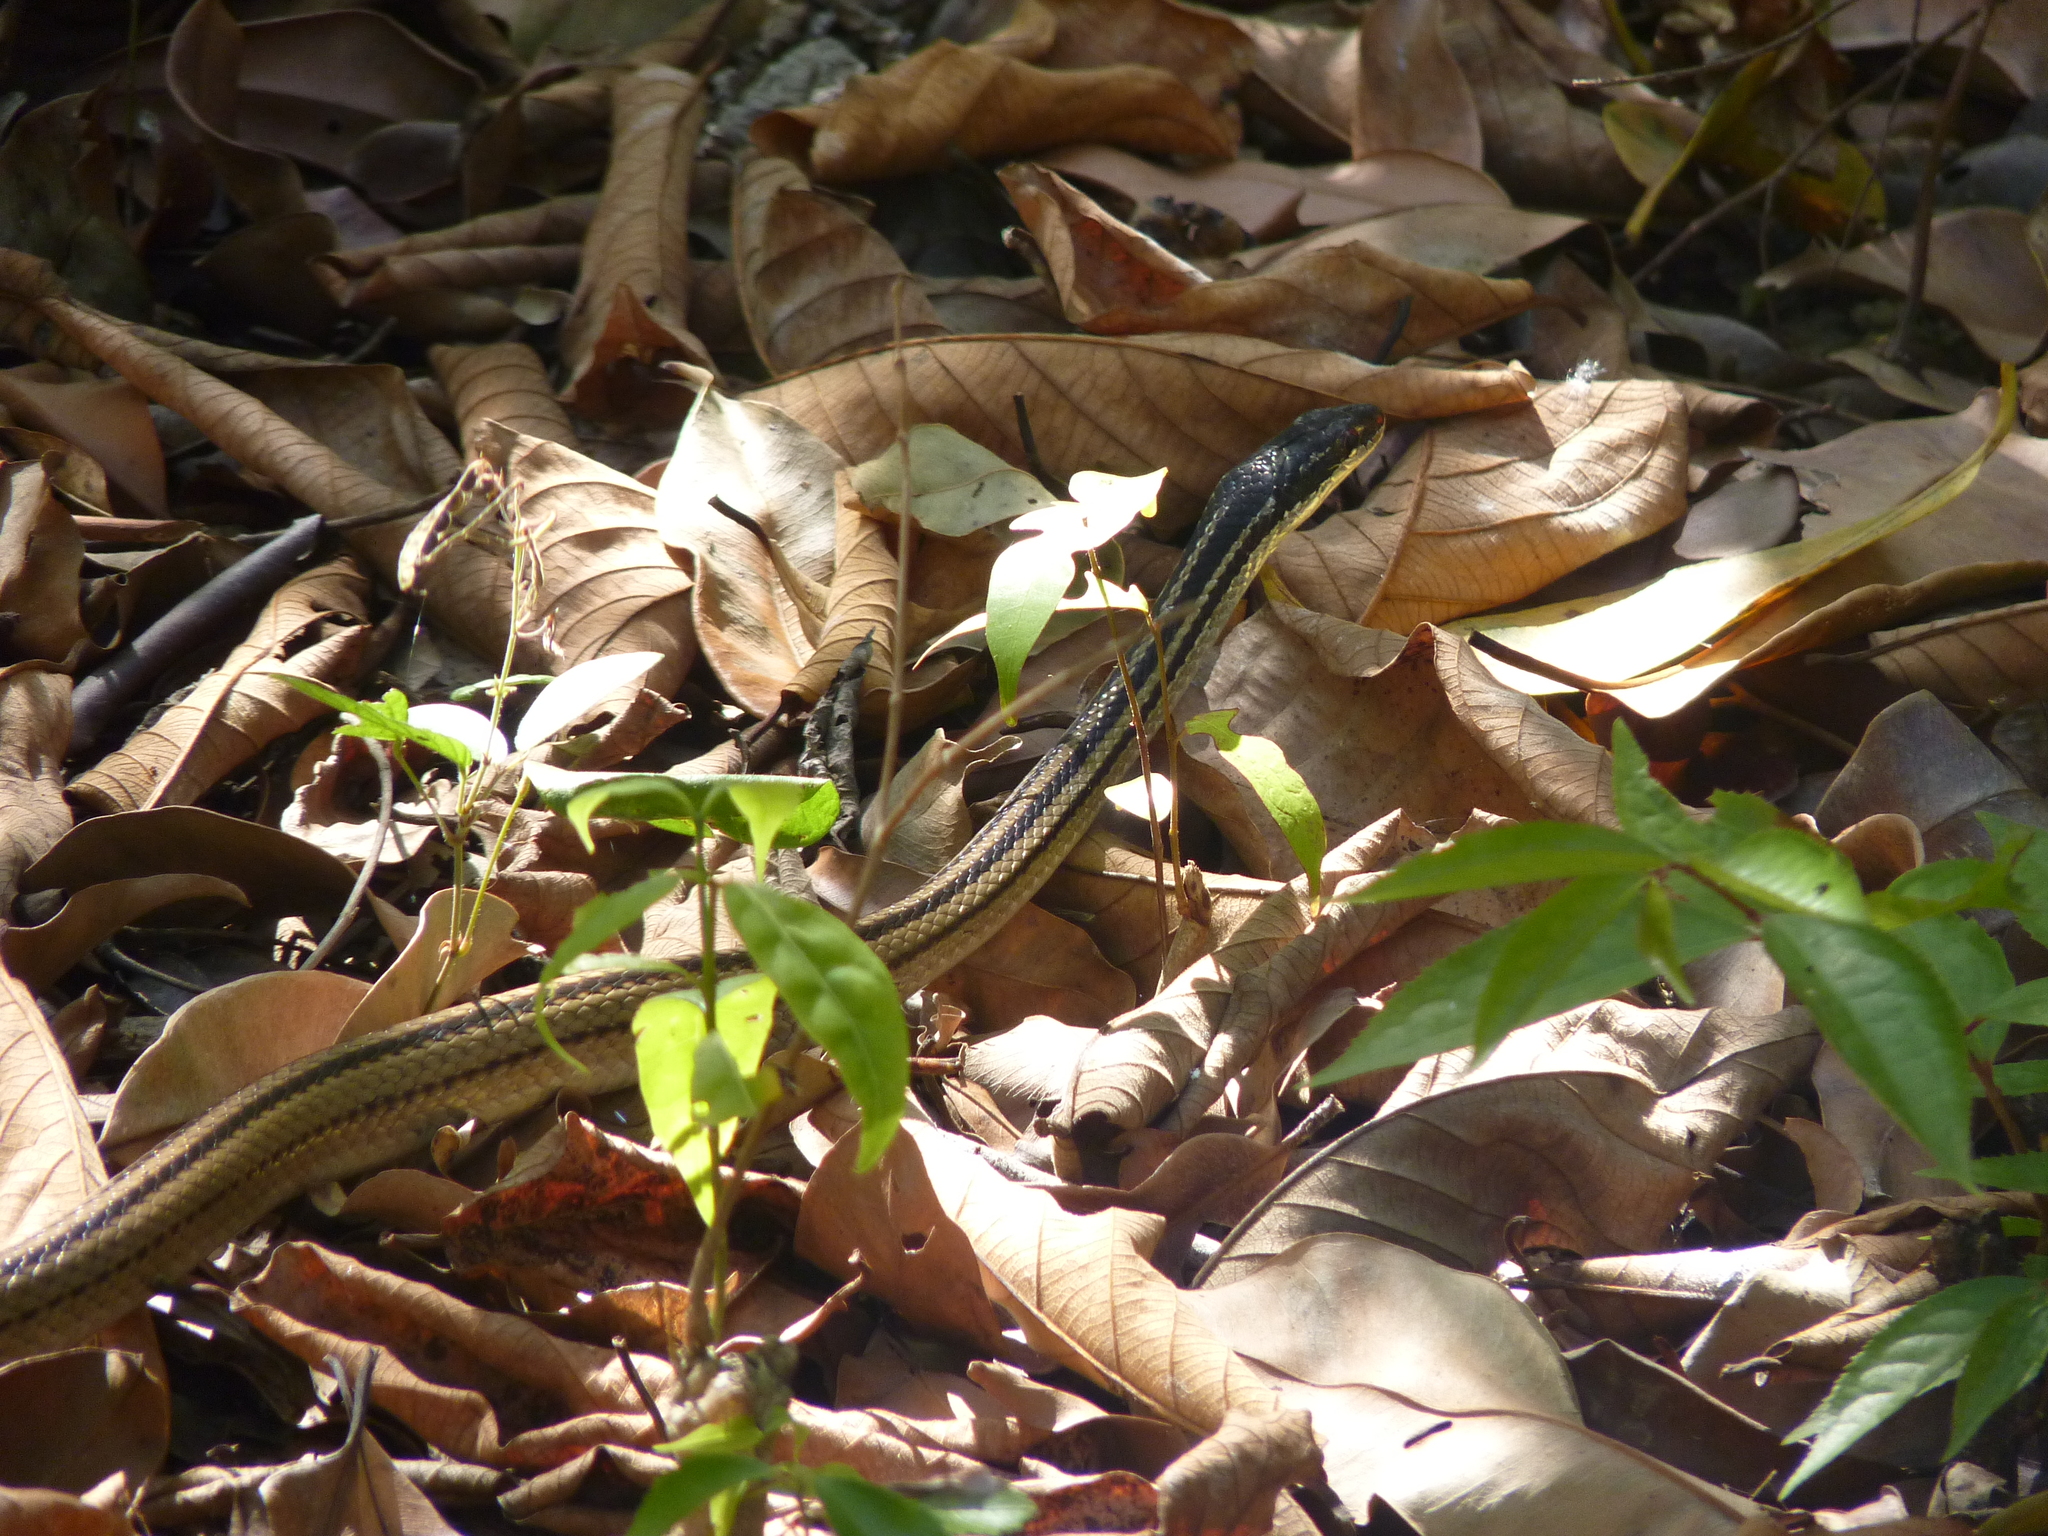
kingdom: Animalia
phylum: Chordata
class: Squamata
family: Pseudoxyrhophiidae
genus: Dromicodryas
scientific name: Dromicodryas quadrilineatus
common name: Four-striped snake
